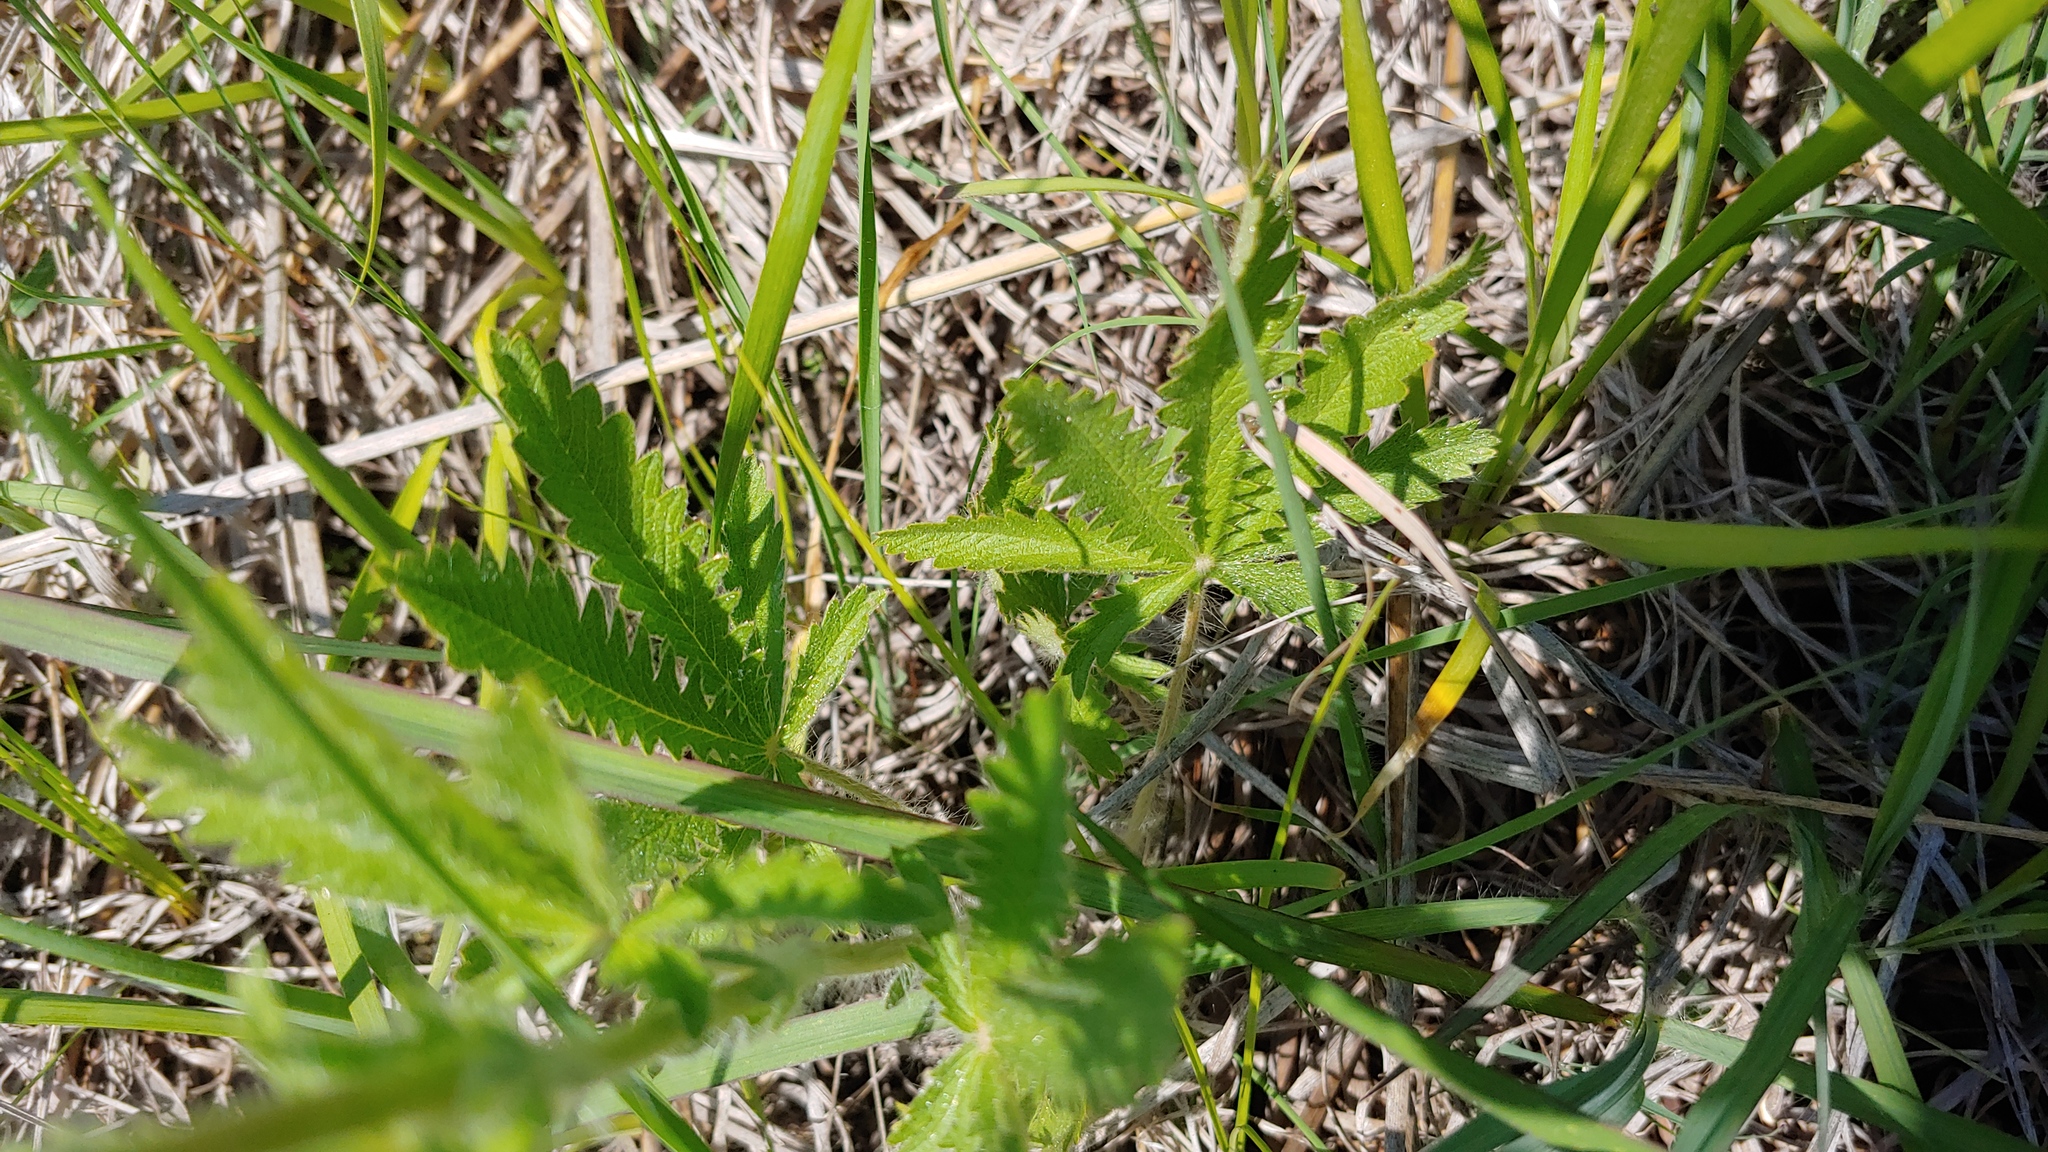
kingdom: Plantae
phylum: Tracheophyta
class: Magnoliopsida
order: Rosales
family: Rosaceae
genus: Potentilla
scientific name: Potentilla recta
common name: Sulphur cinquefoil
